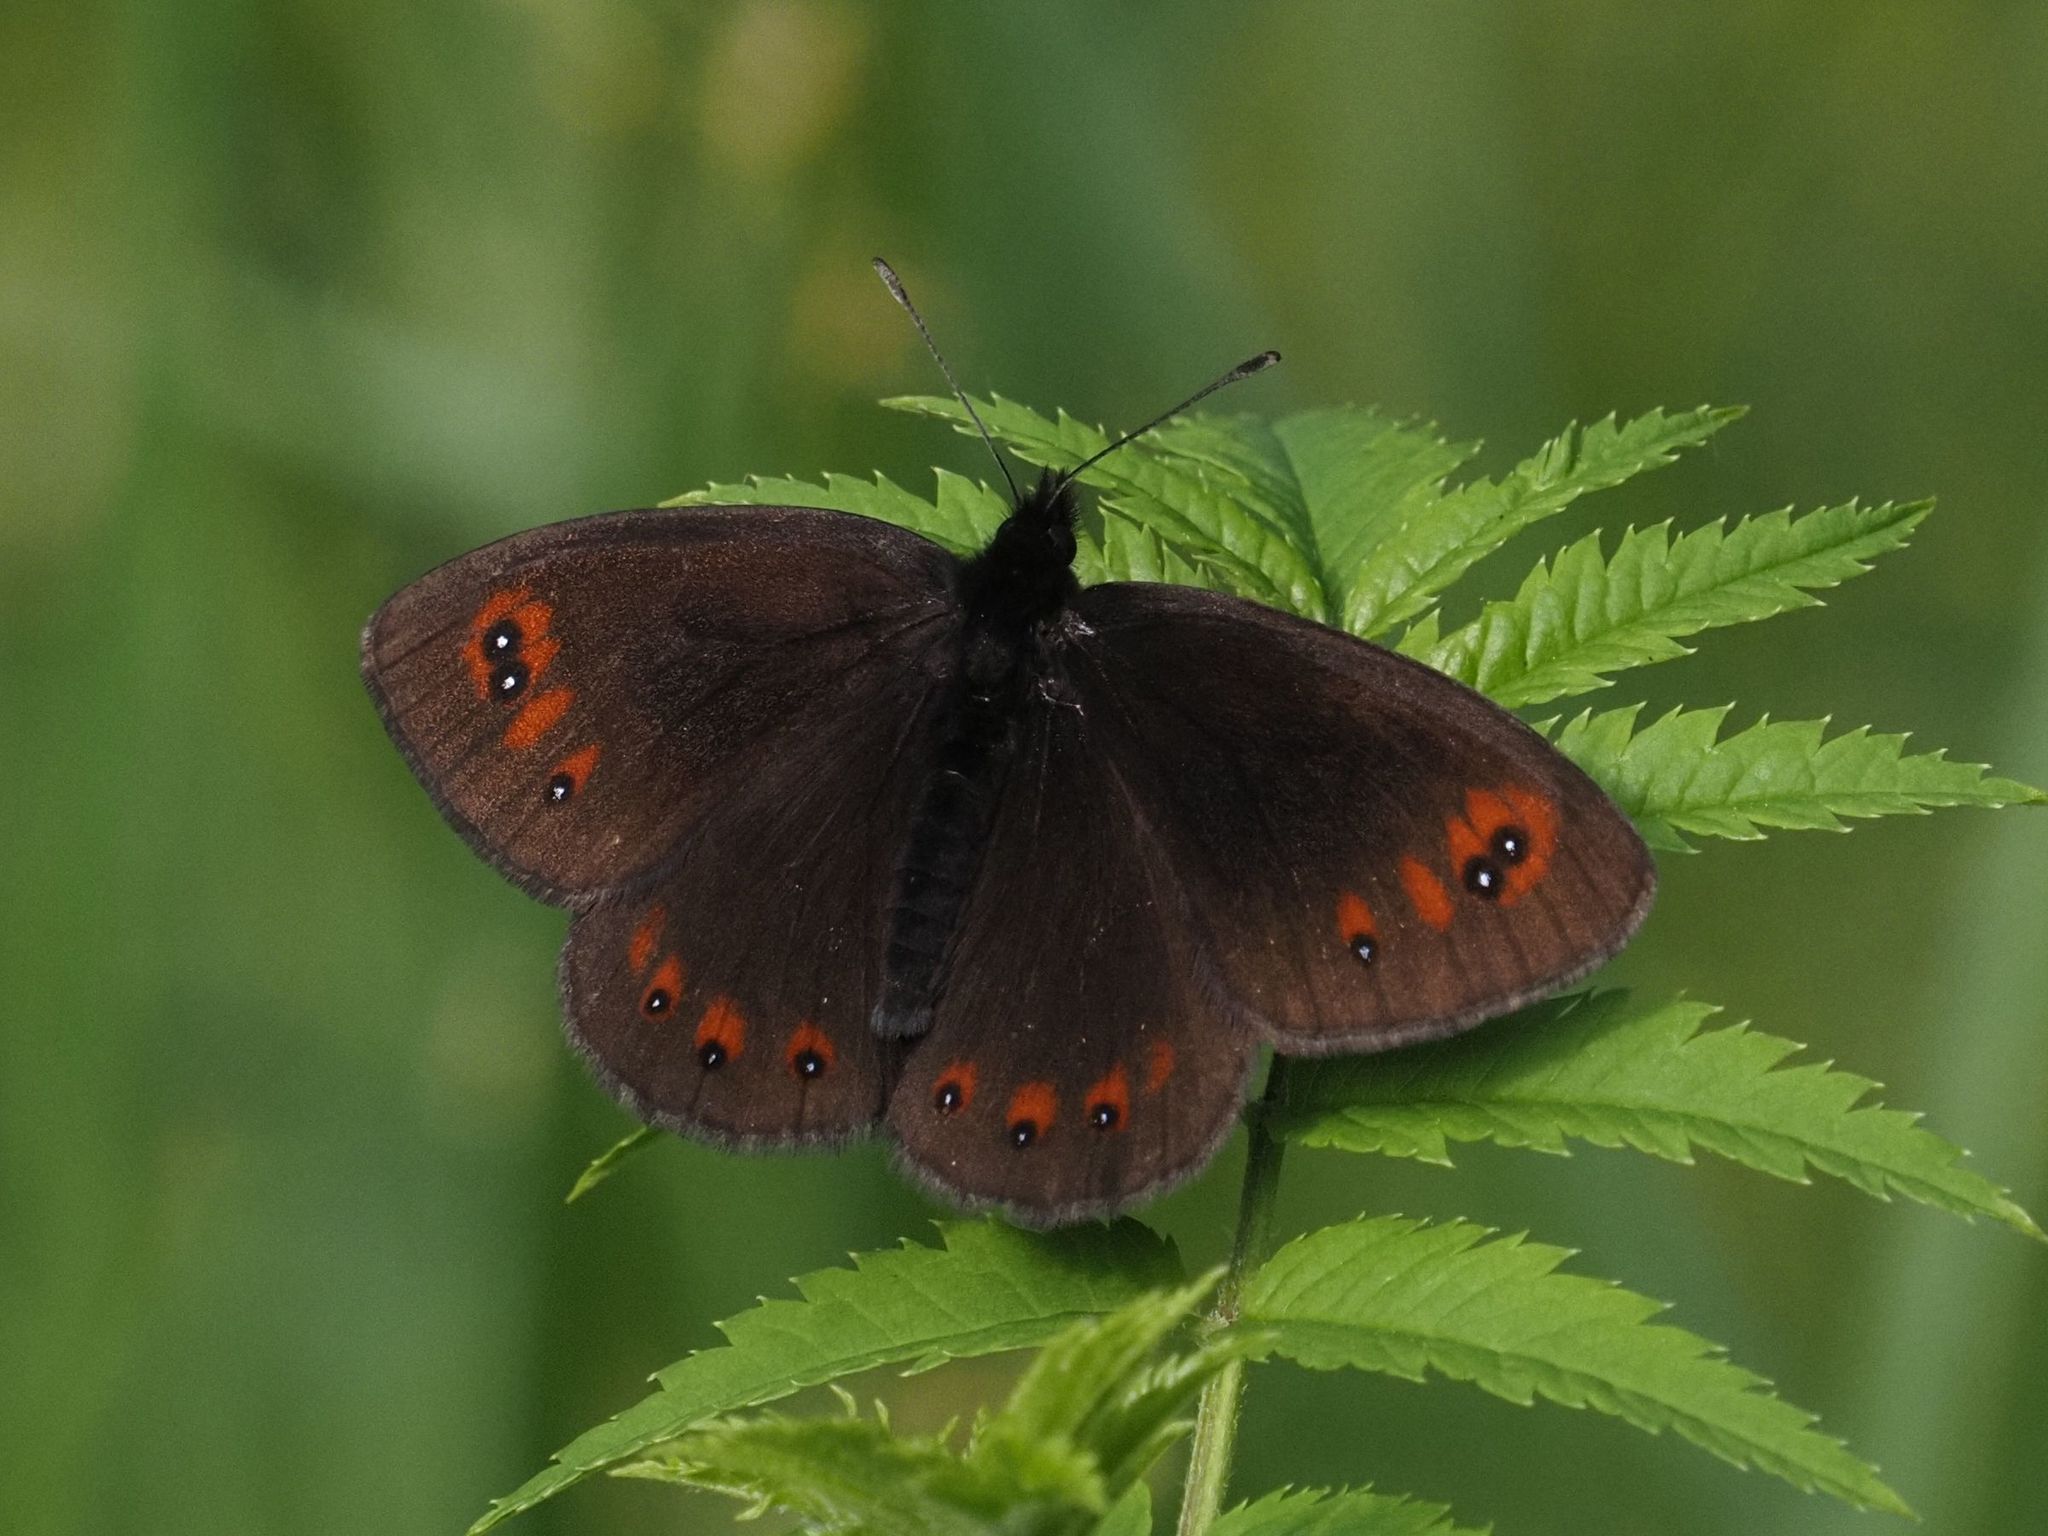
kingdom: Animalia
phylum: Arthropoda
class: Insecta
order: Lepidoptera
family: Nymphalidae
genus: Erebia
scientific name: Erebia meolans
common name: Piedmont ringlet
